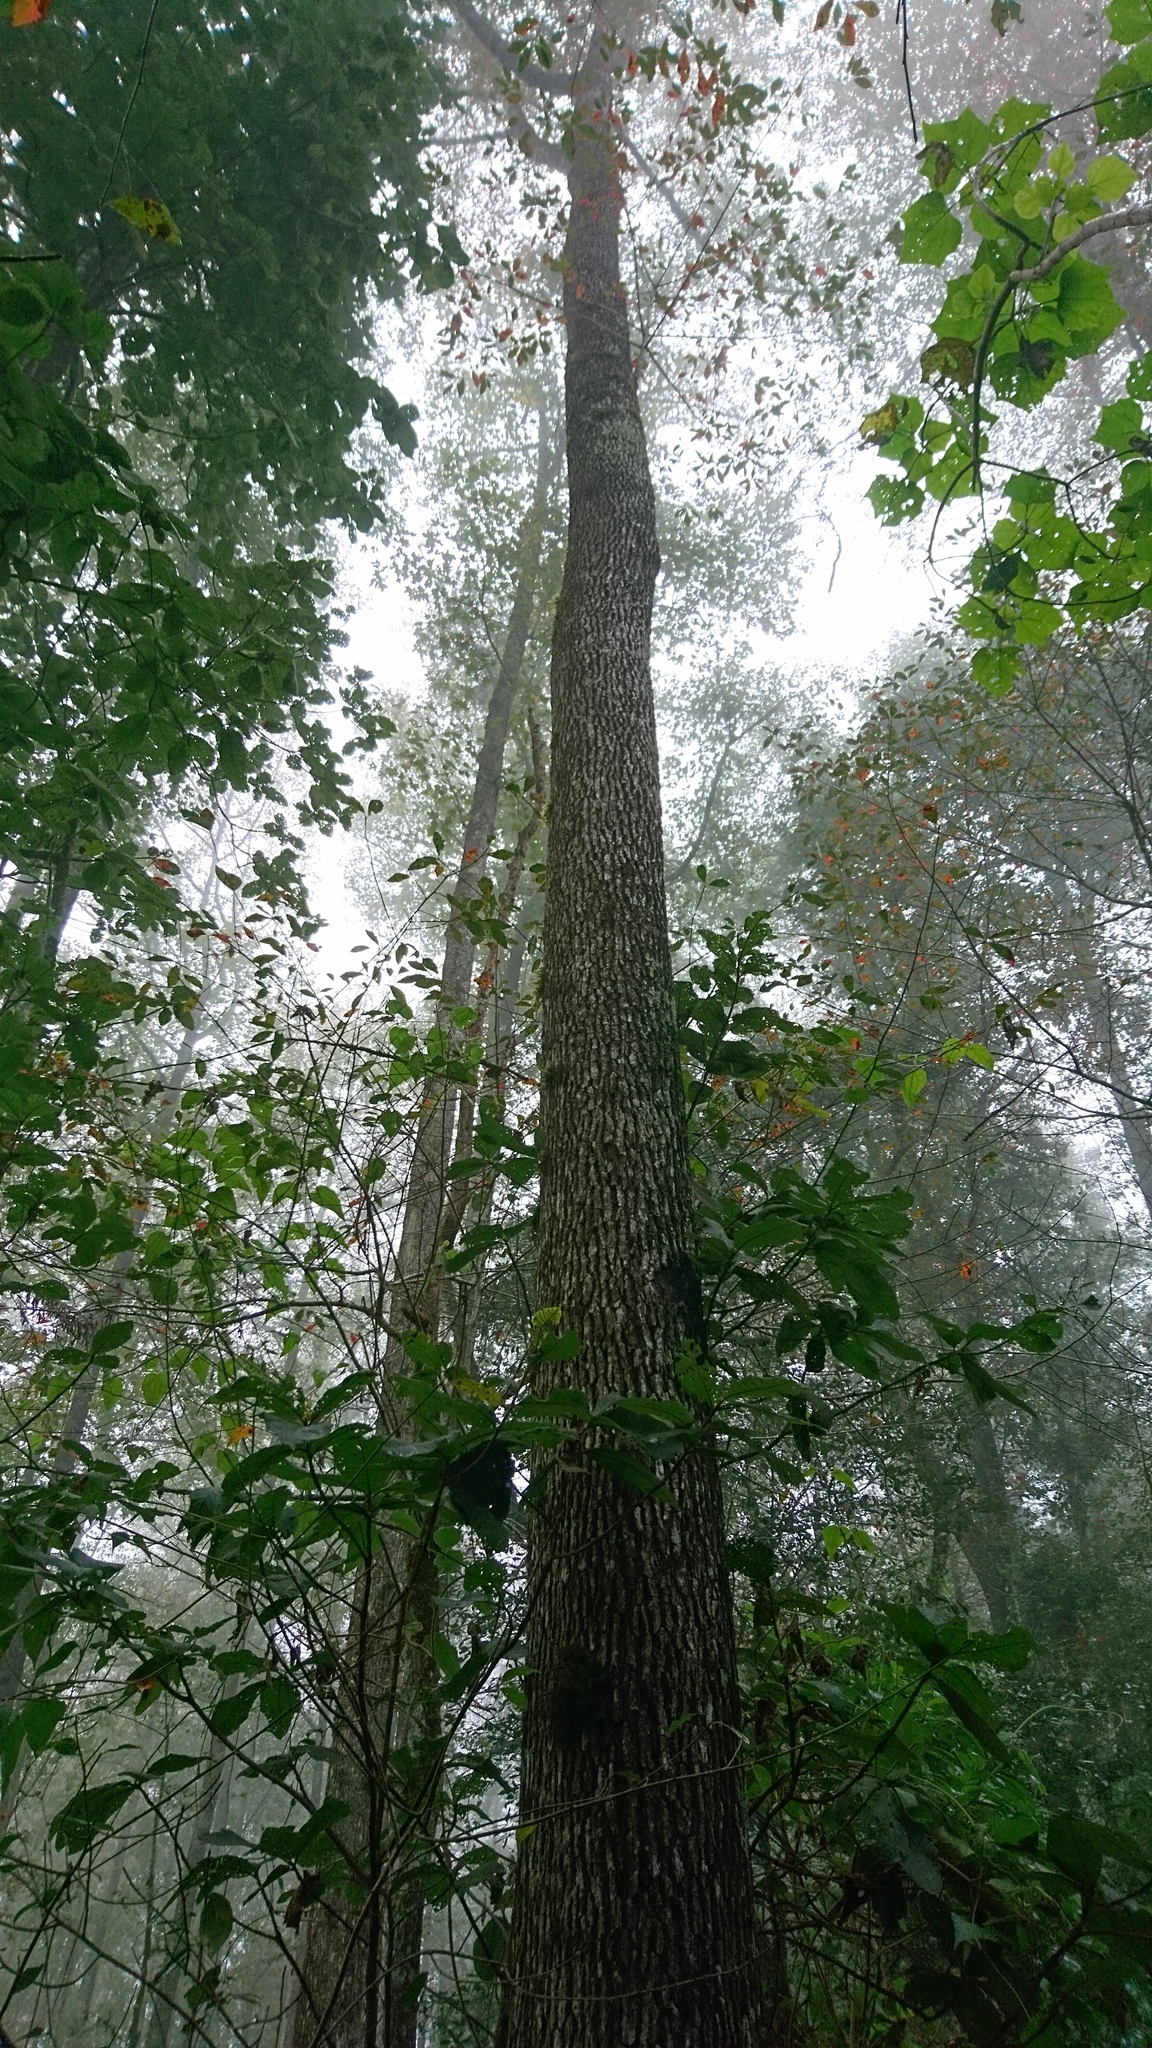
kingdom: Plantae
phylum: Tracheophyta
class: Magnoliopsida
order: Cornales
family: Nyssaceae
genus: Nyssa
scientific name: Nyssa sylvatica
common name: Black tupelo
